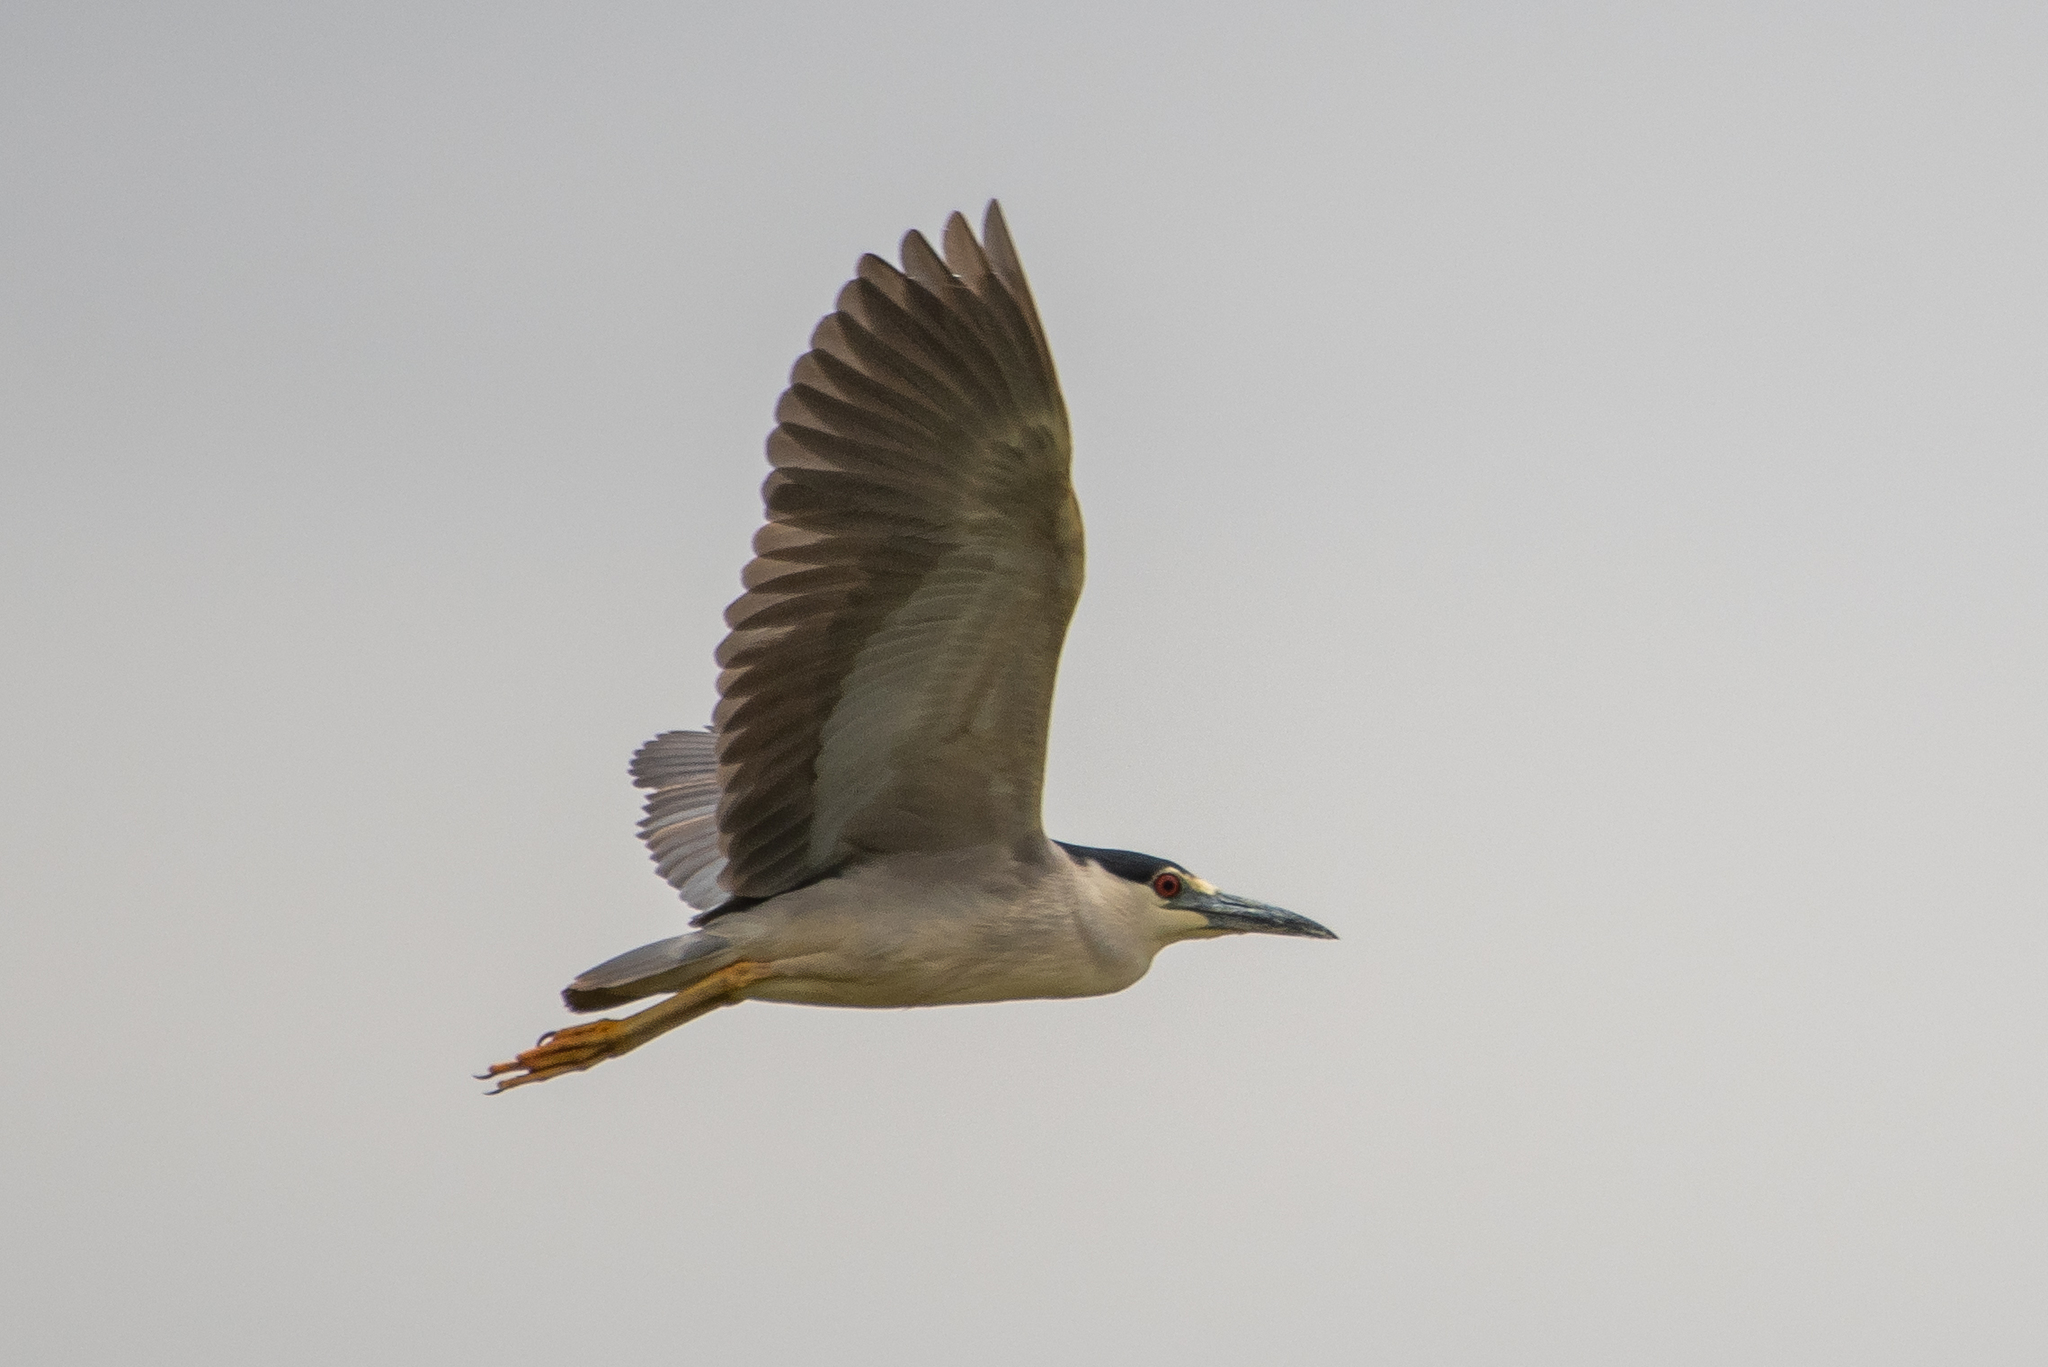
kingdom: Animalia
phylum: Chordata
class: Aves
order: Pelecaniformes
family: Ardeidae
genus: Nycticorax
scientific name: Nycticorax nycticorax
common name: Black-crowned night heron
